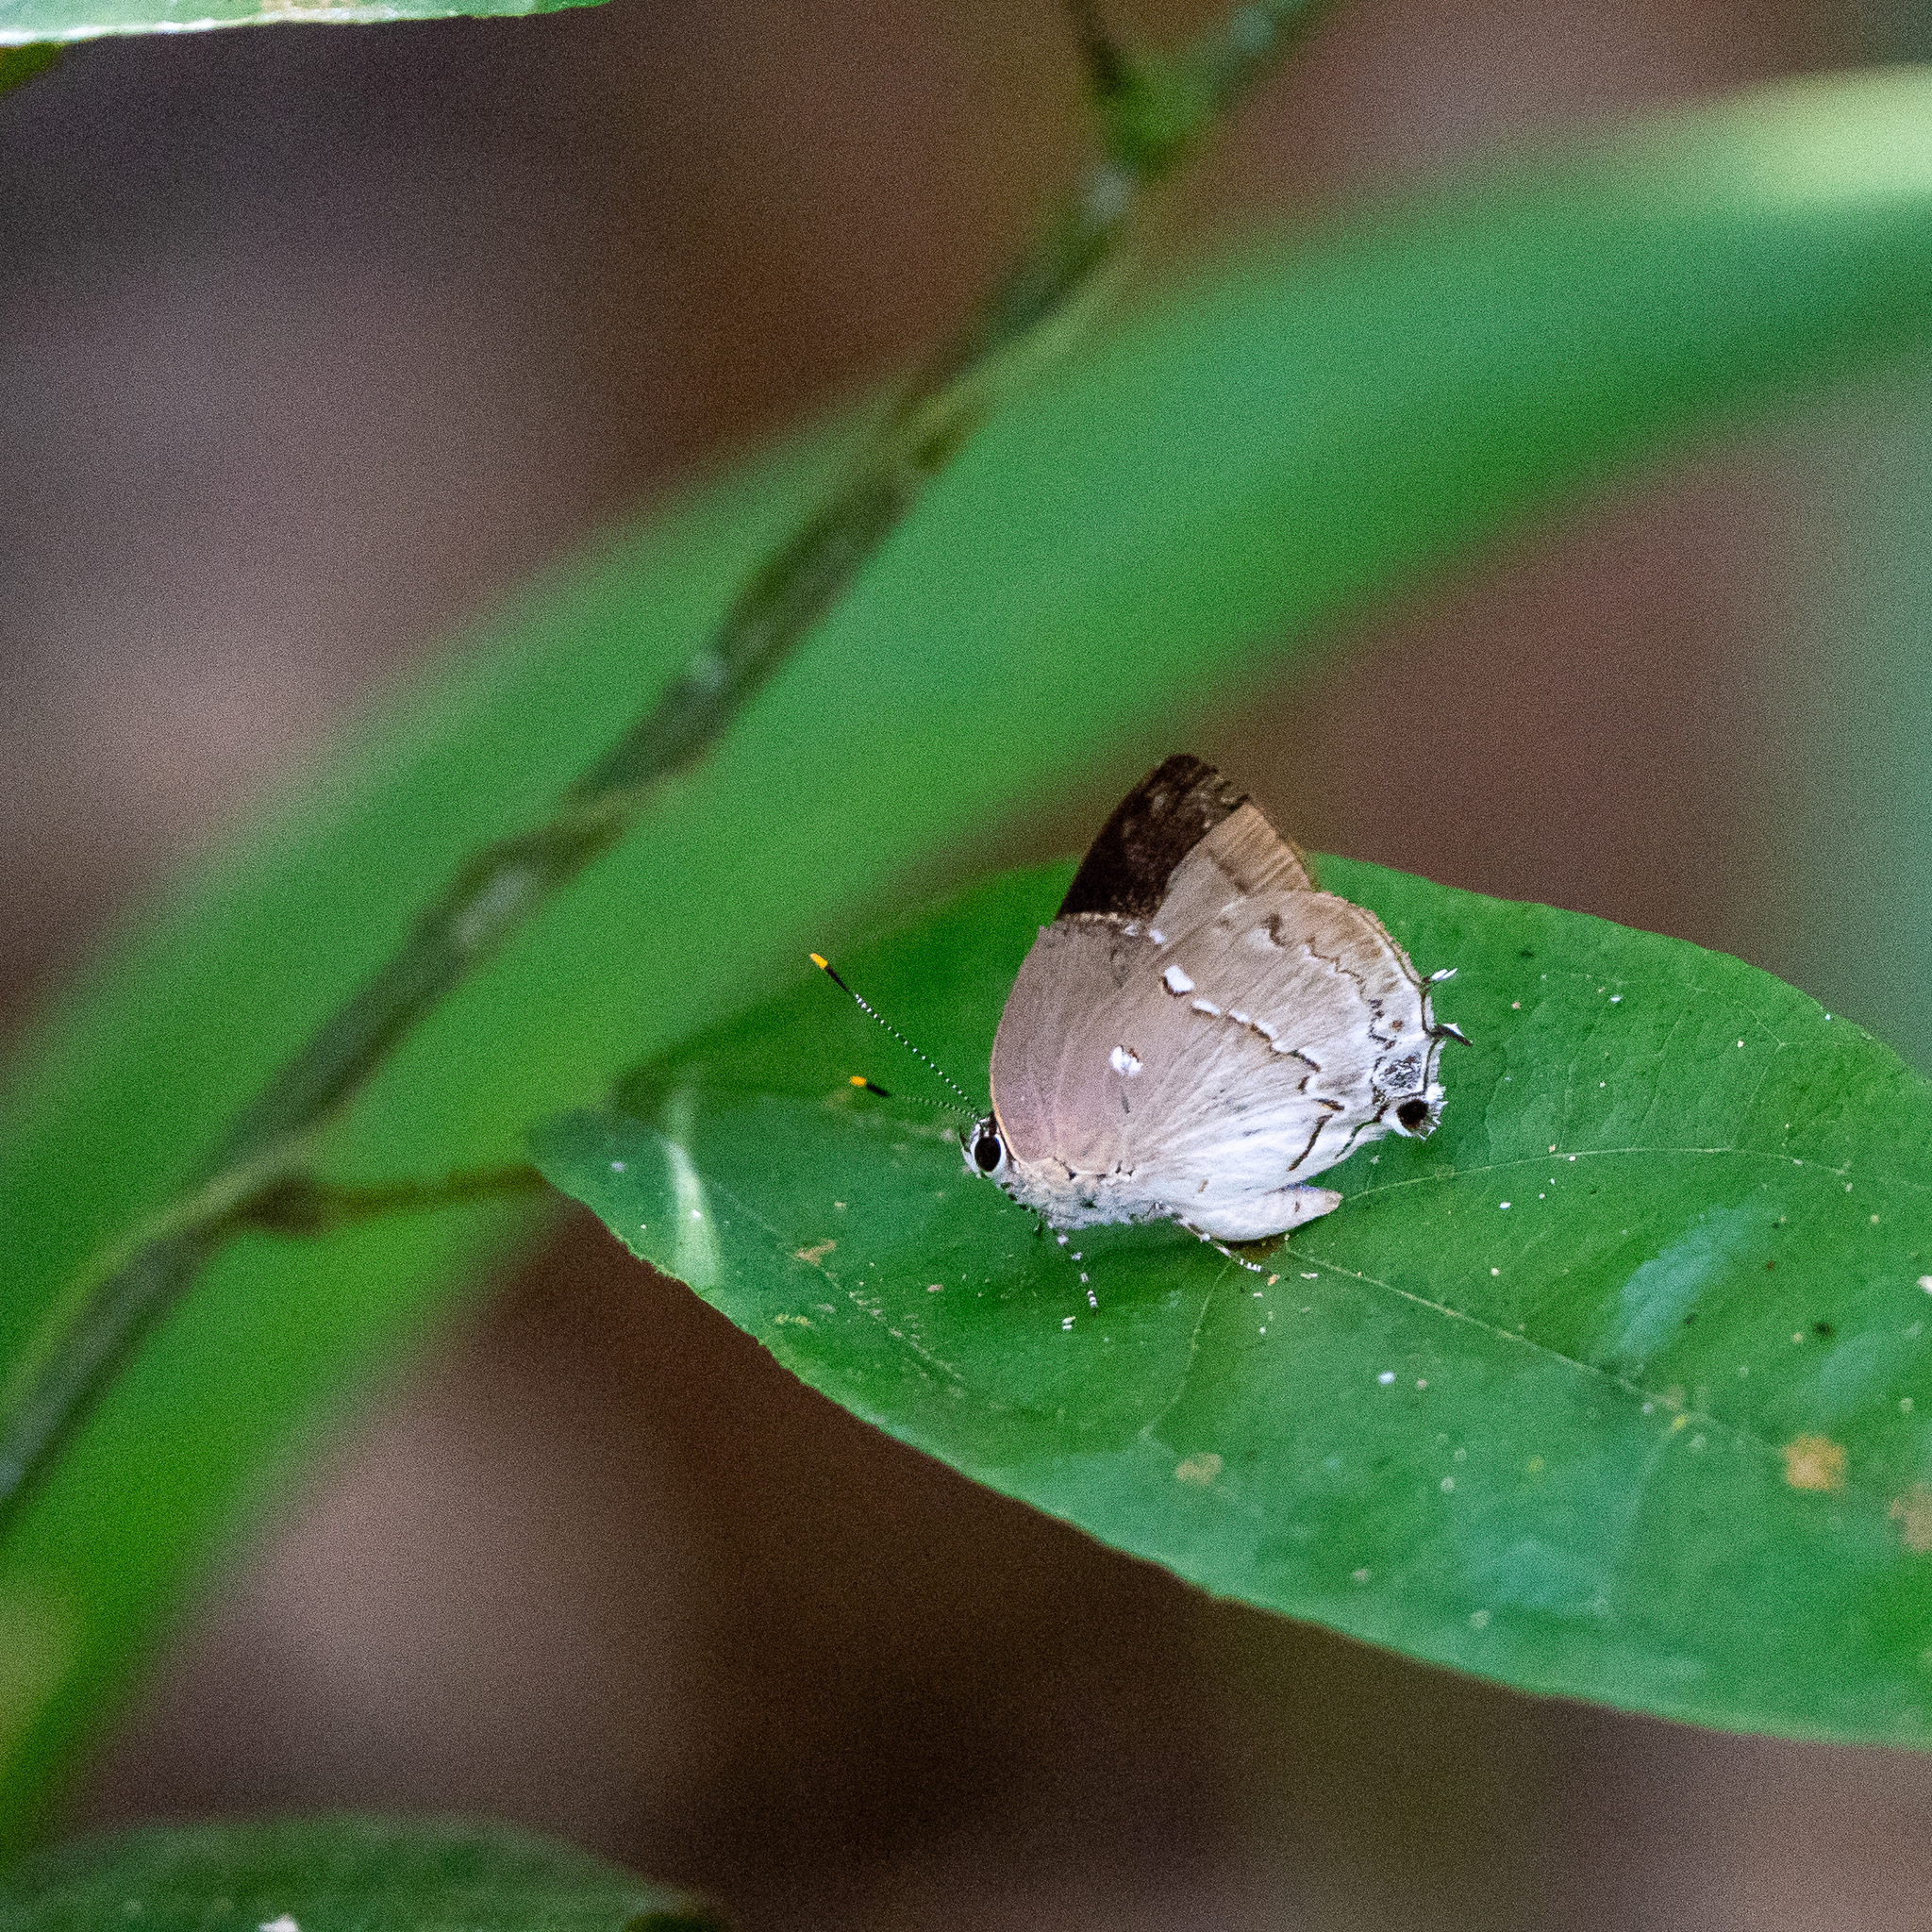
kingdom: Animalia
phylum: Arthropoda
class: Insecta
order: Lepidoptera
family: Lycaenidae
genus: Thecla
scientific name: Thecla mutina
